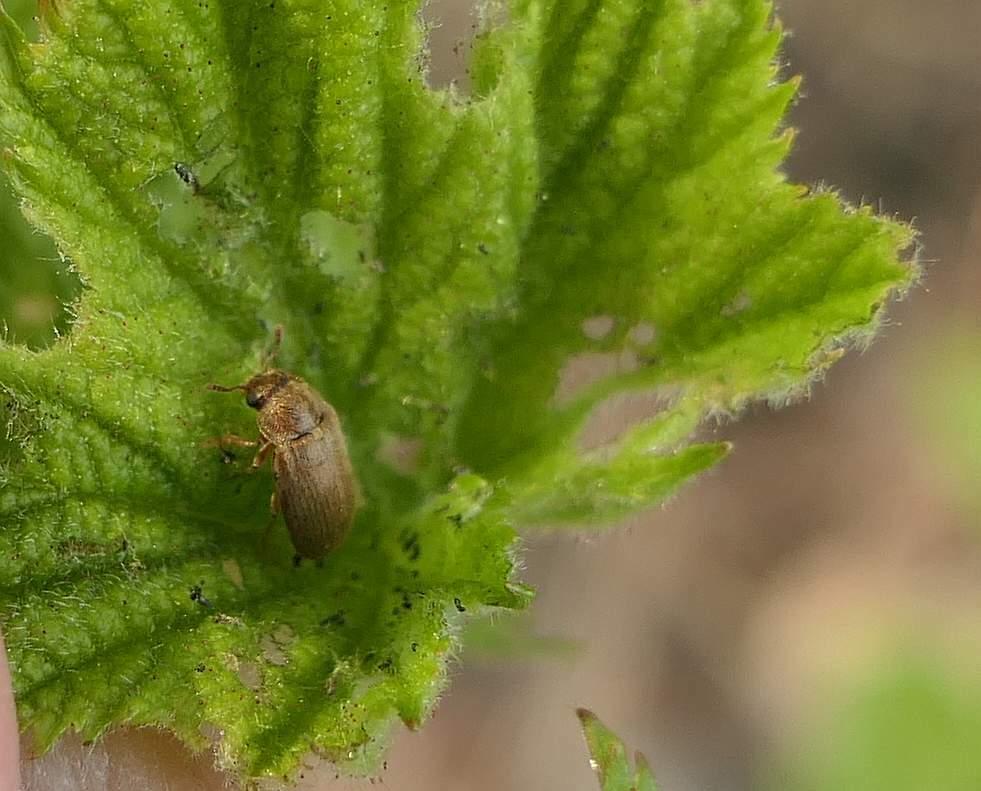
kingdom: Animalia
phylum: Arthropoda
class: Insecta
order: Coleoptera
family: Byturidae
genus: Byturus
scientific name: Byturus unicolor
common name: Raspberry fruitworm beetle
